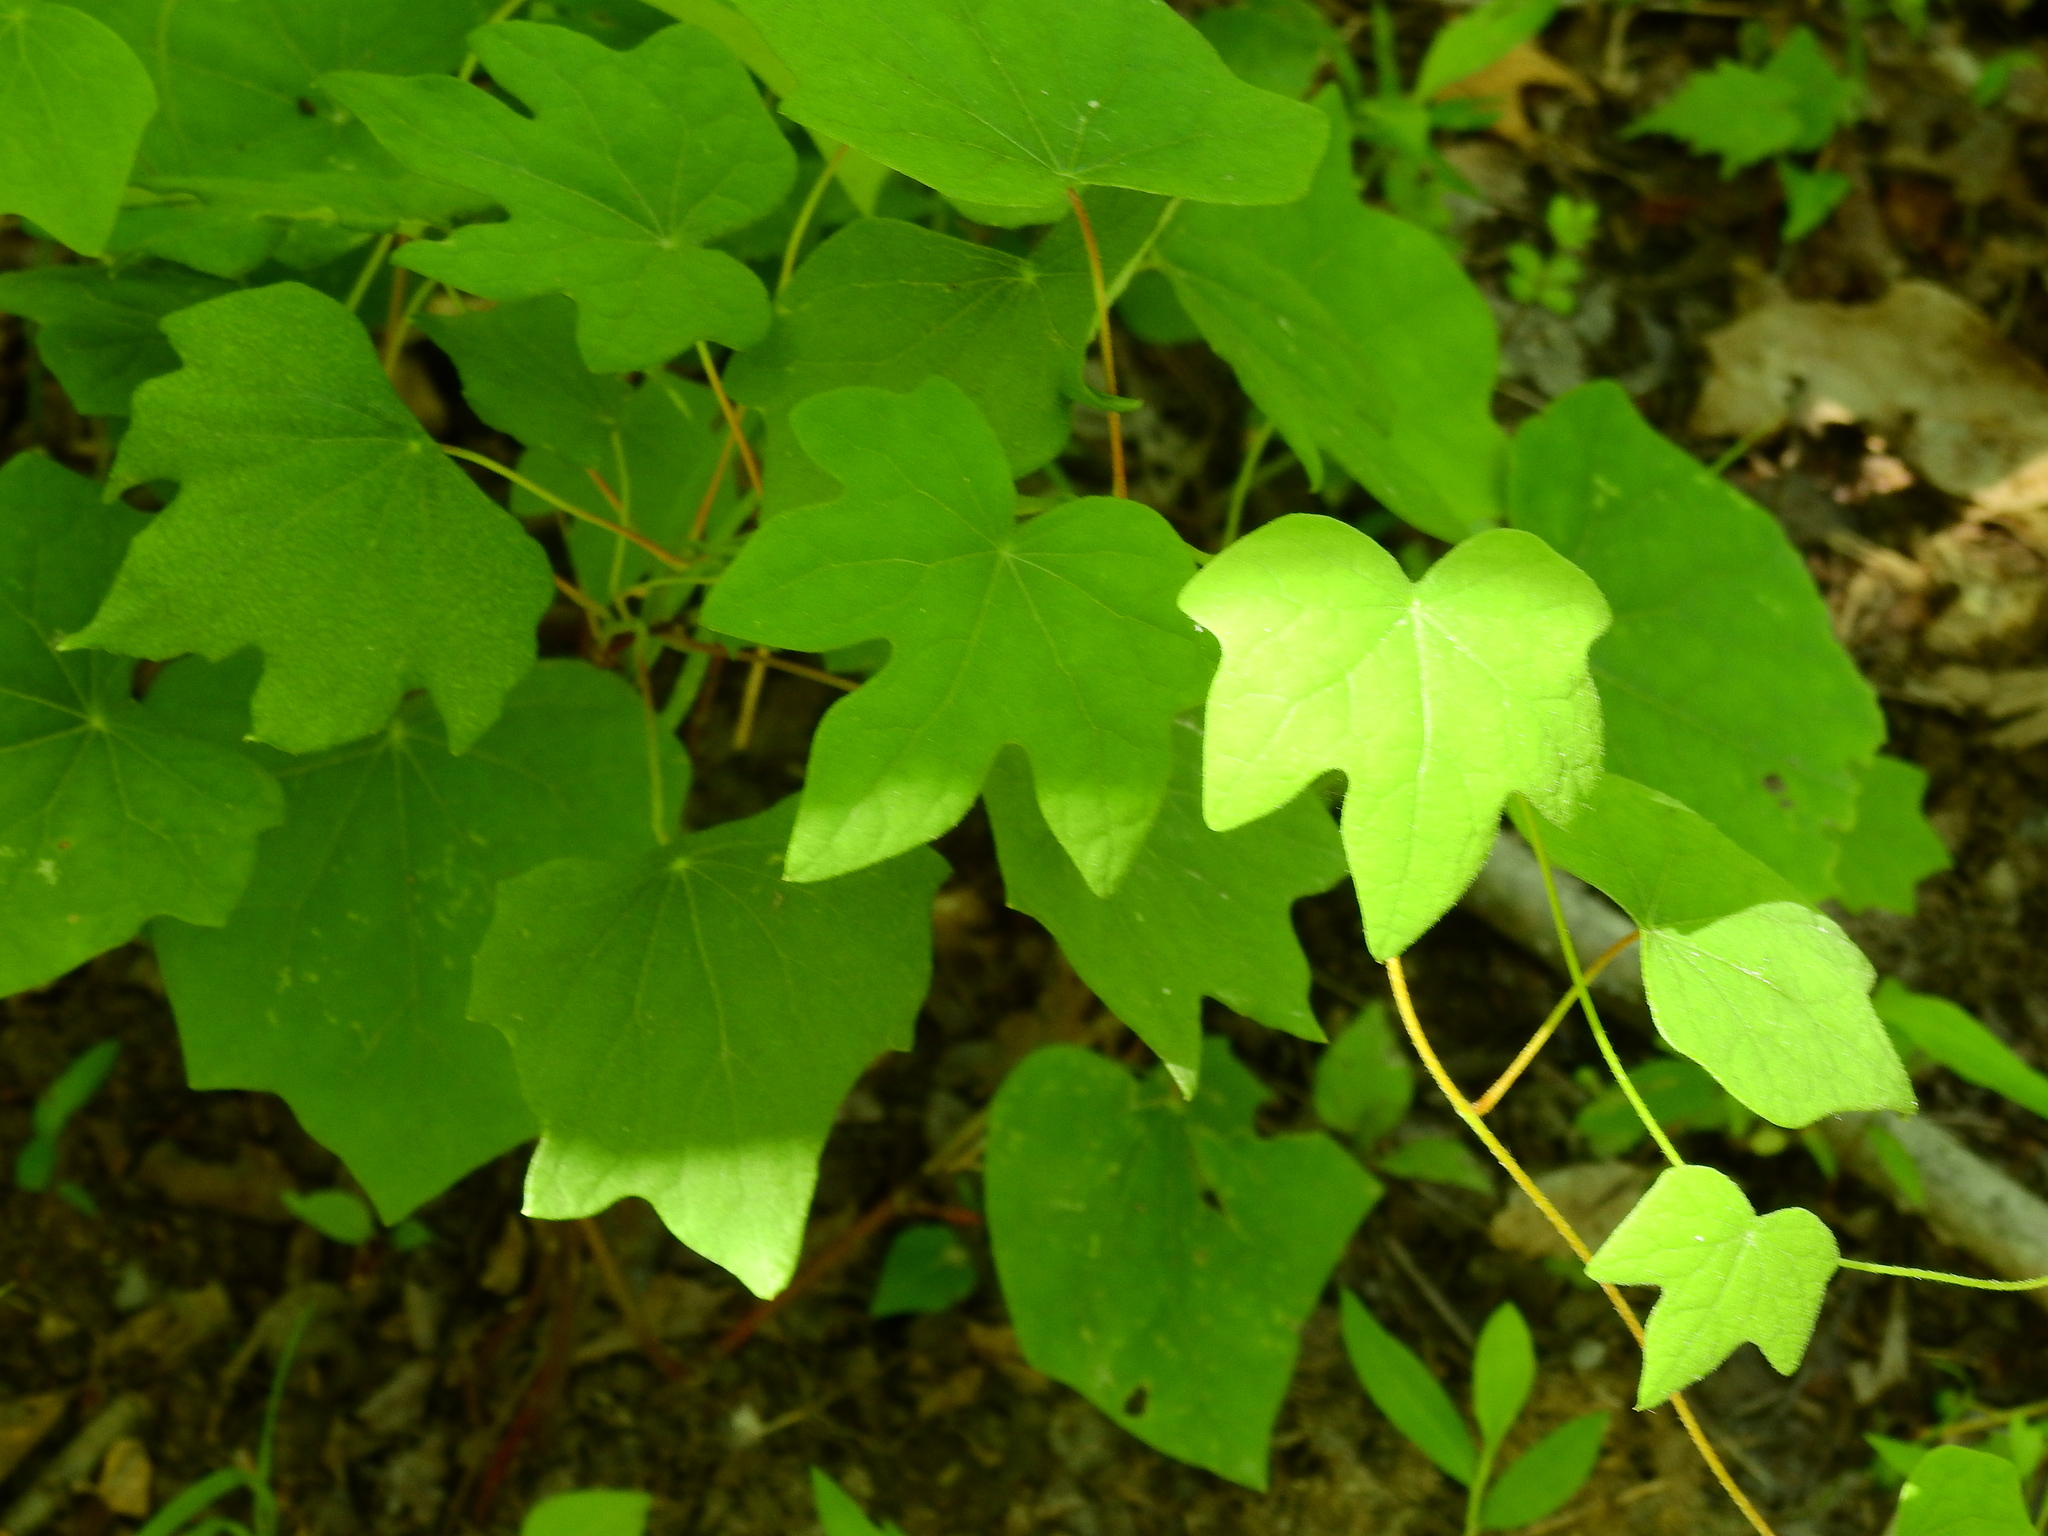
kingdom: Plantae
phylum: Tracheophyta
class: Magnoliopsida
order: Ranunculales
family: Menispermaceae
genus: Menispermum
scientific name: Menispermum canadense
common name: Moonseed
